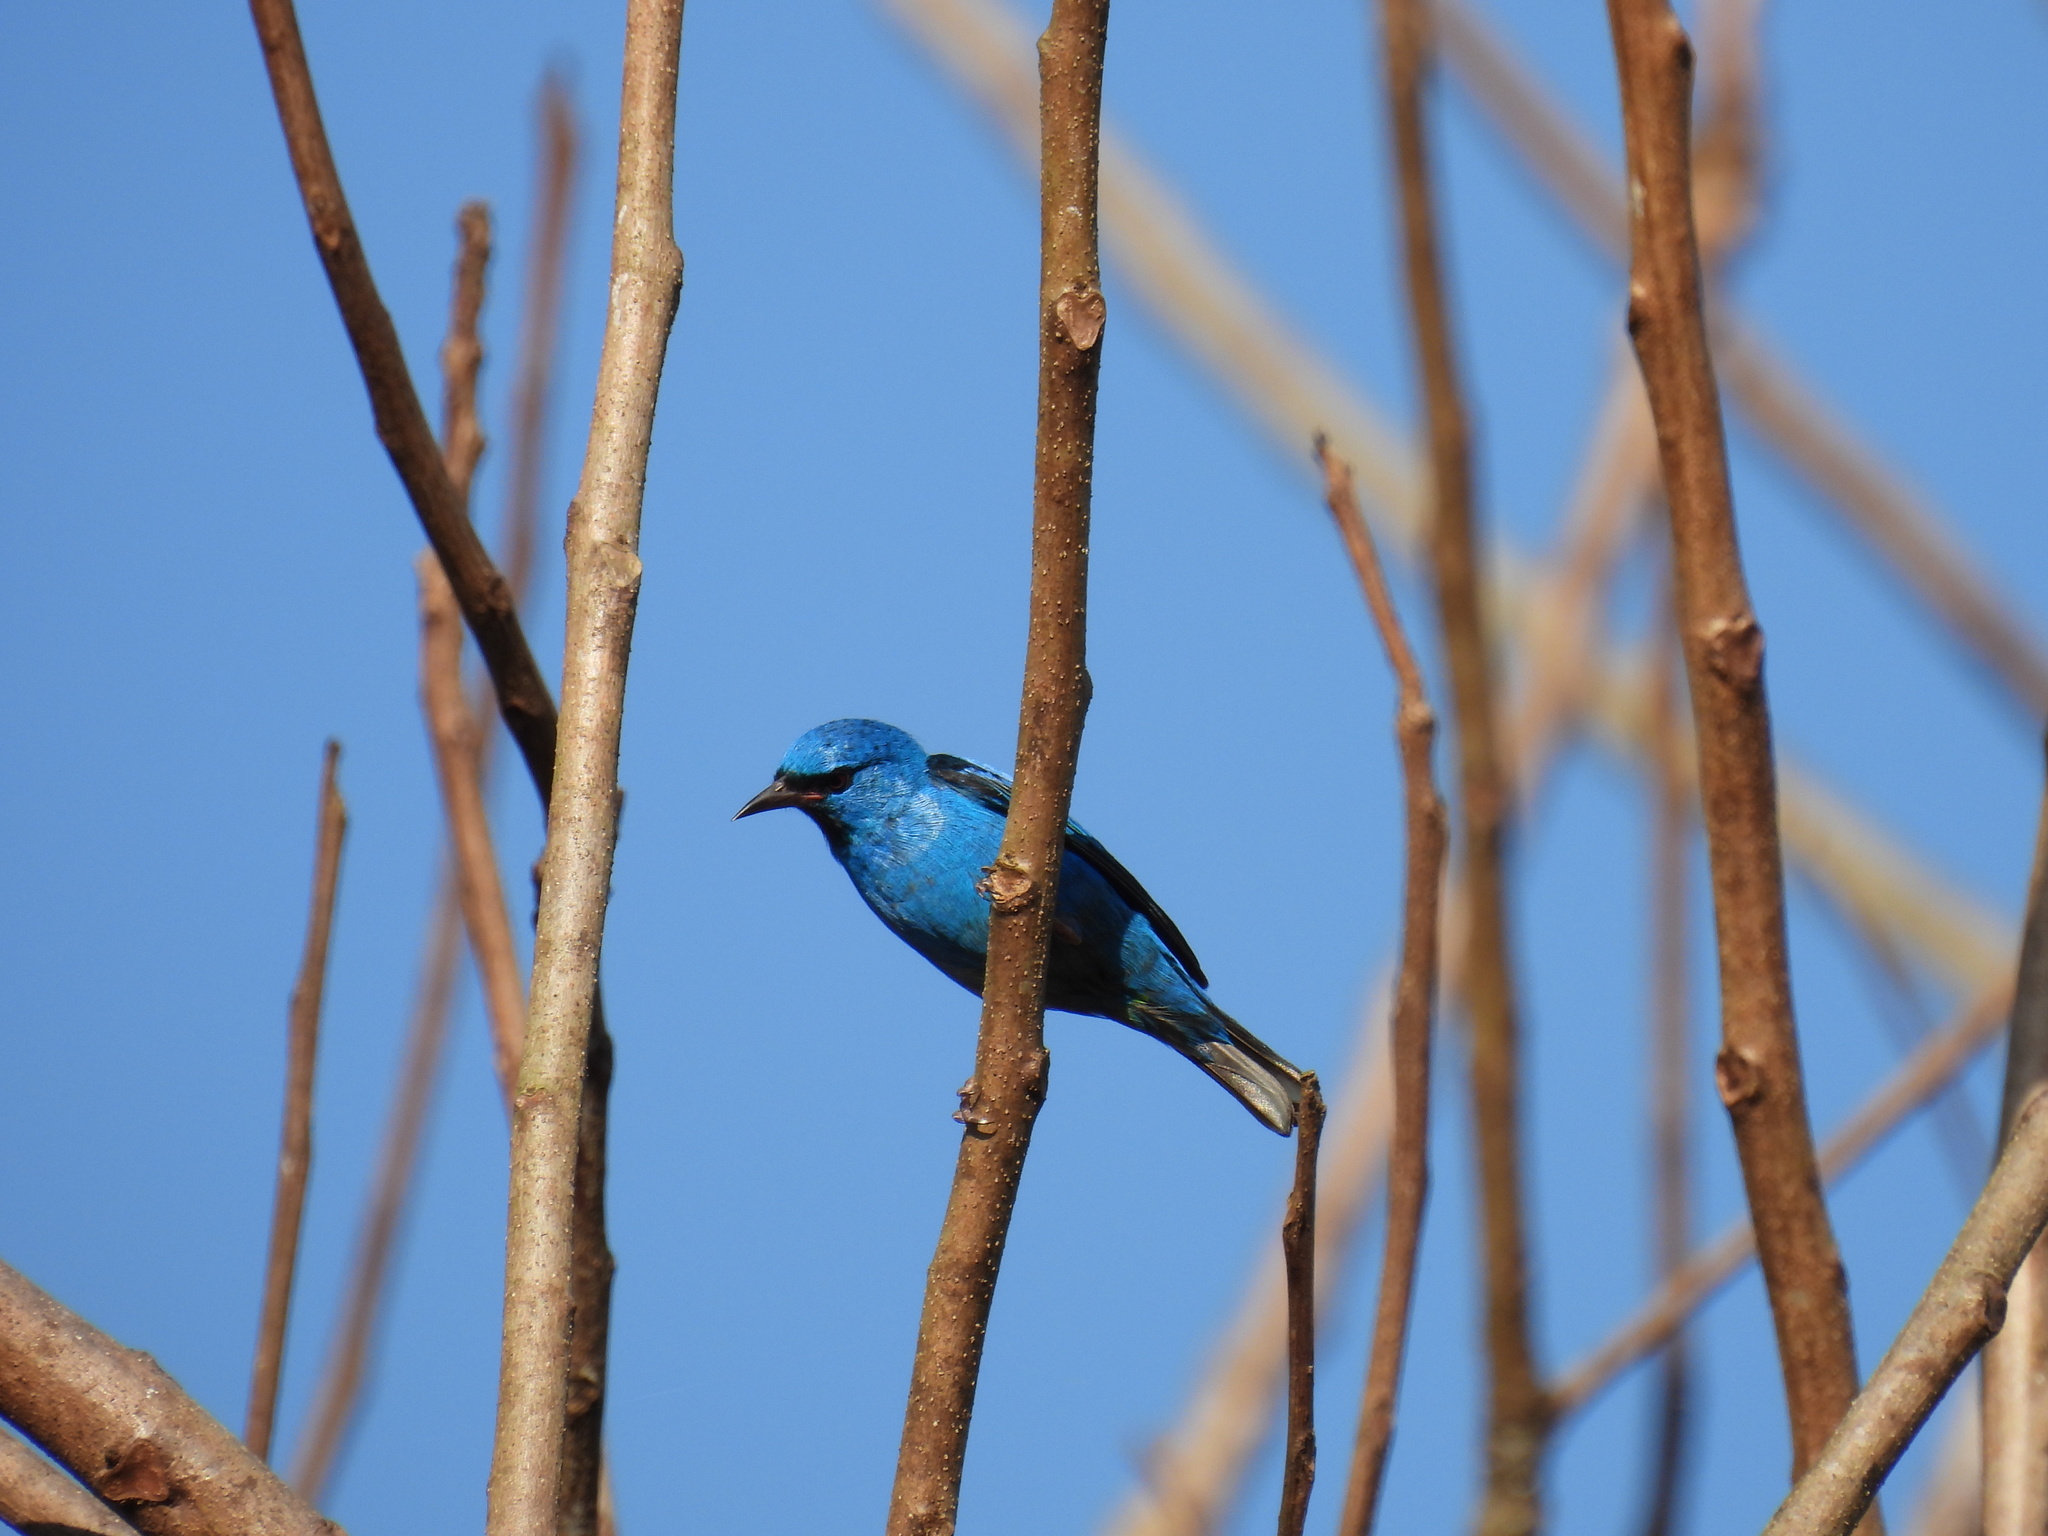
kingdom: Animalia
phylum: Chordata
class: Aves
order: Passeriformes
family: Thraupidae
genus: Dacnis
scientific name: Dacnis cayana
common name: Blue dacnis
